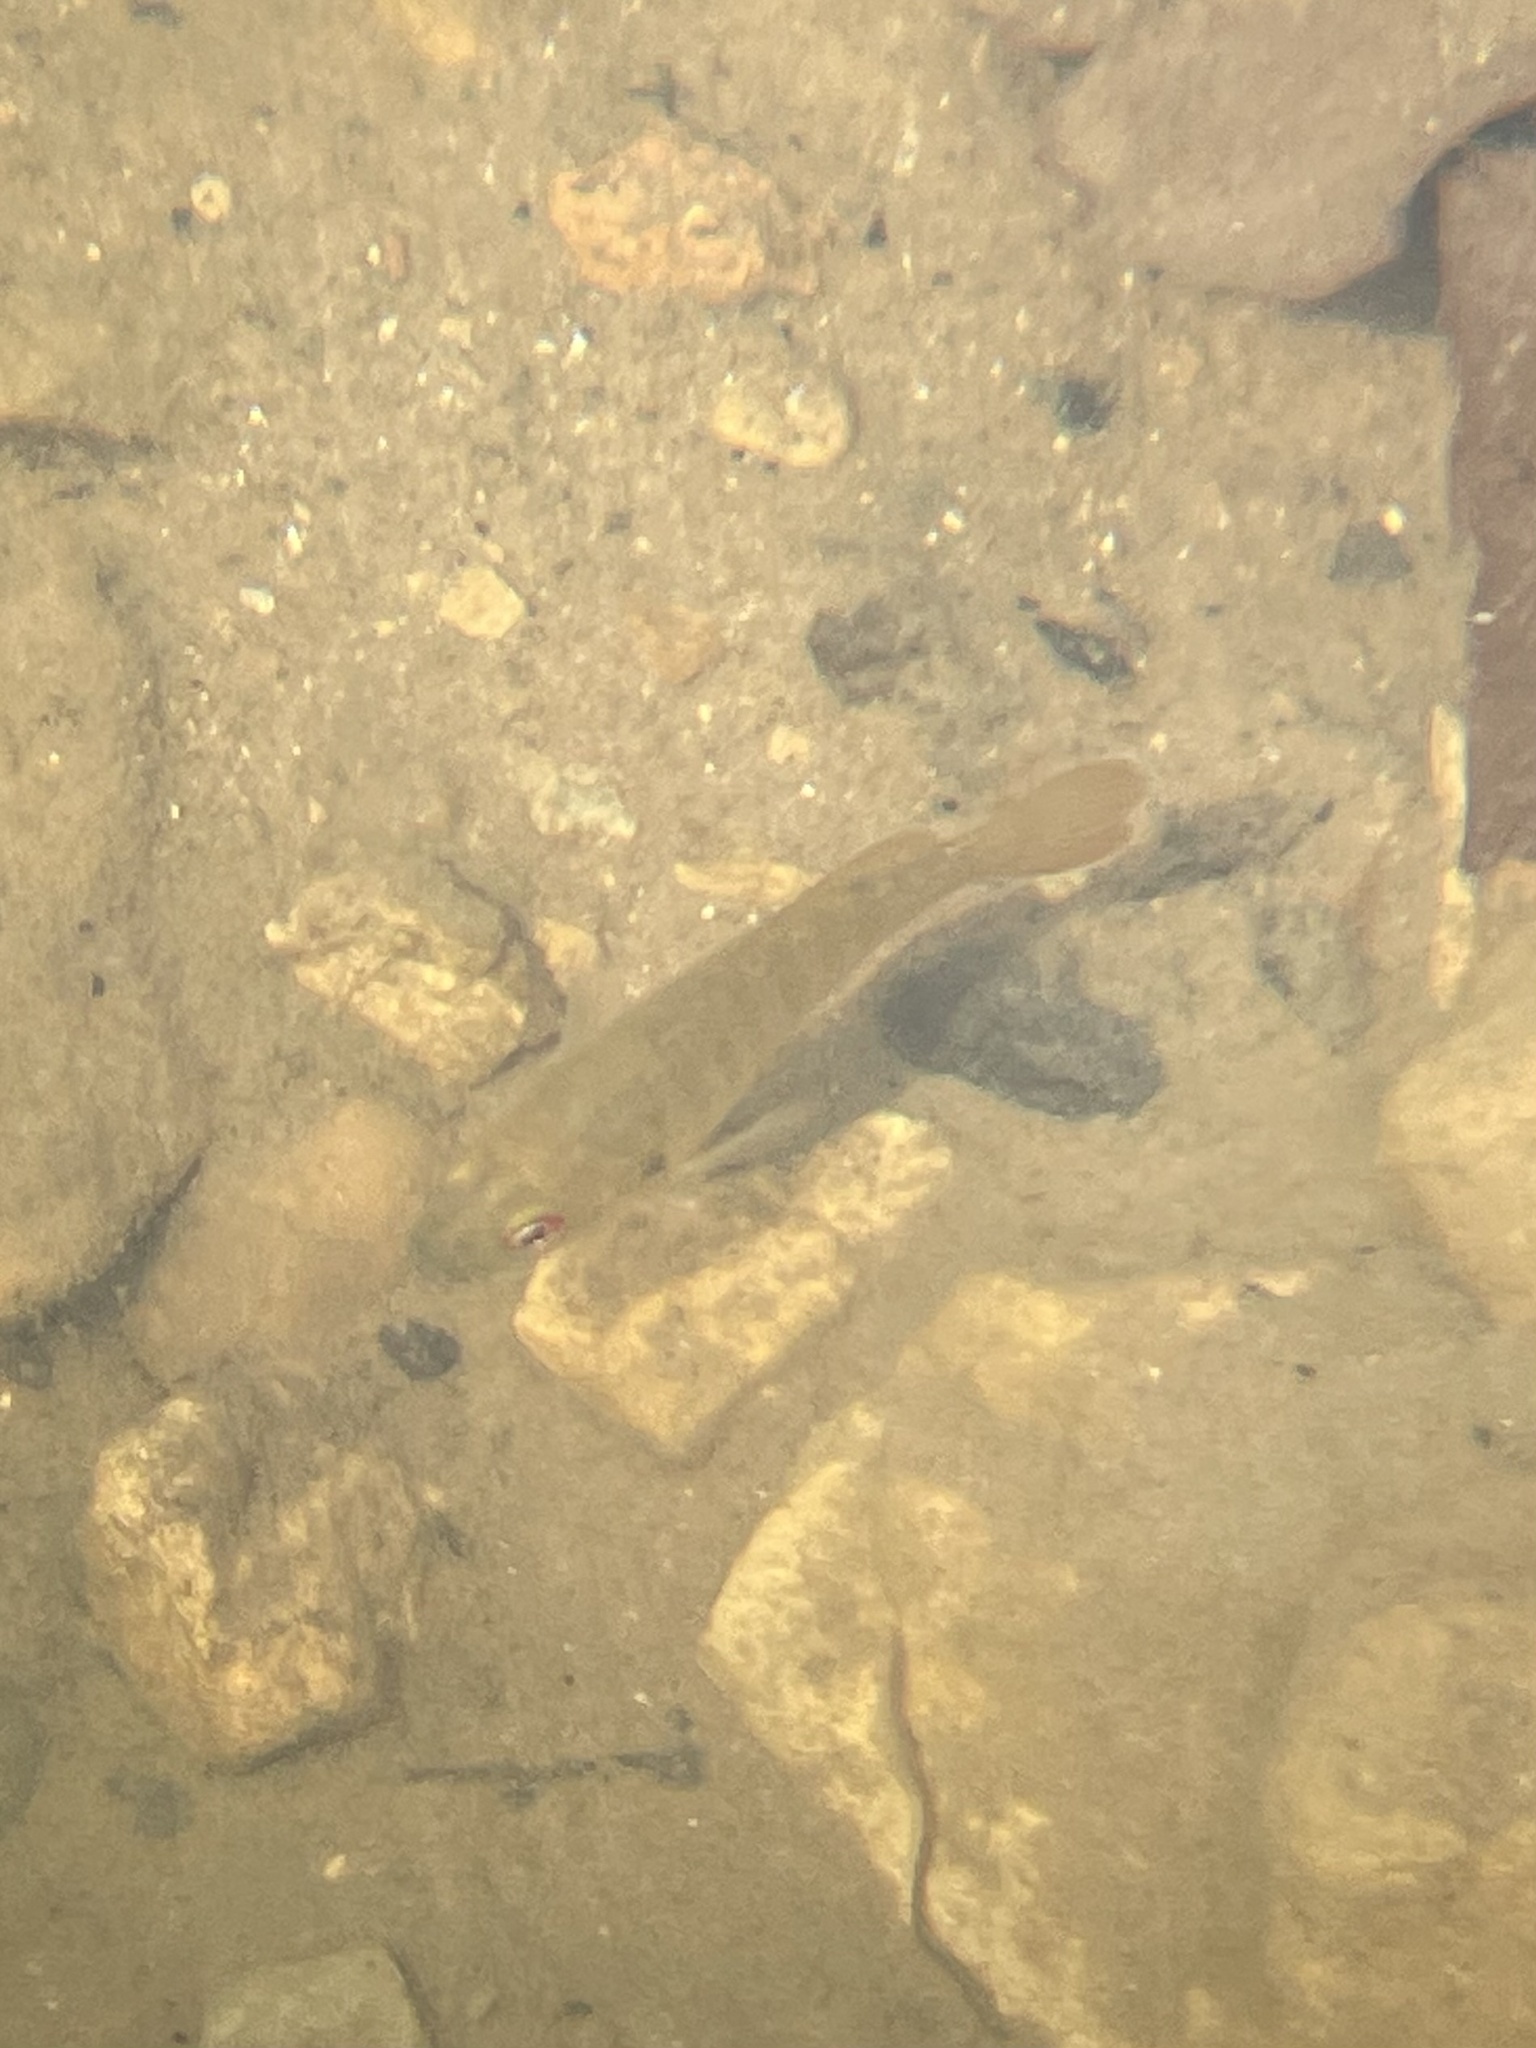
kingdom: Animalia
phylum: Chordata
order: Perciformes
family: Centrarchidae
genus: Lepomis
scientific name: Lepomis cyanellus
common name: Green sunfish
